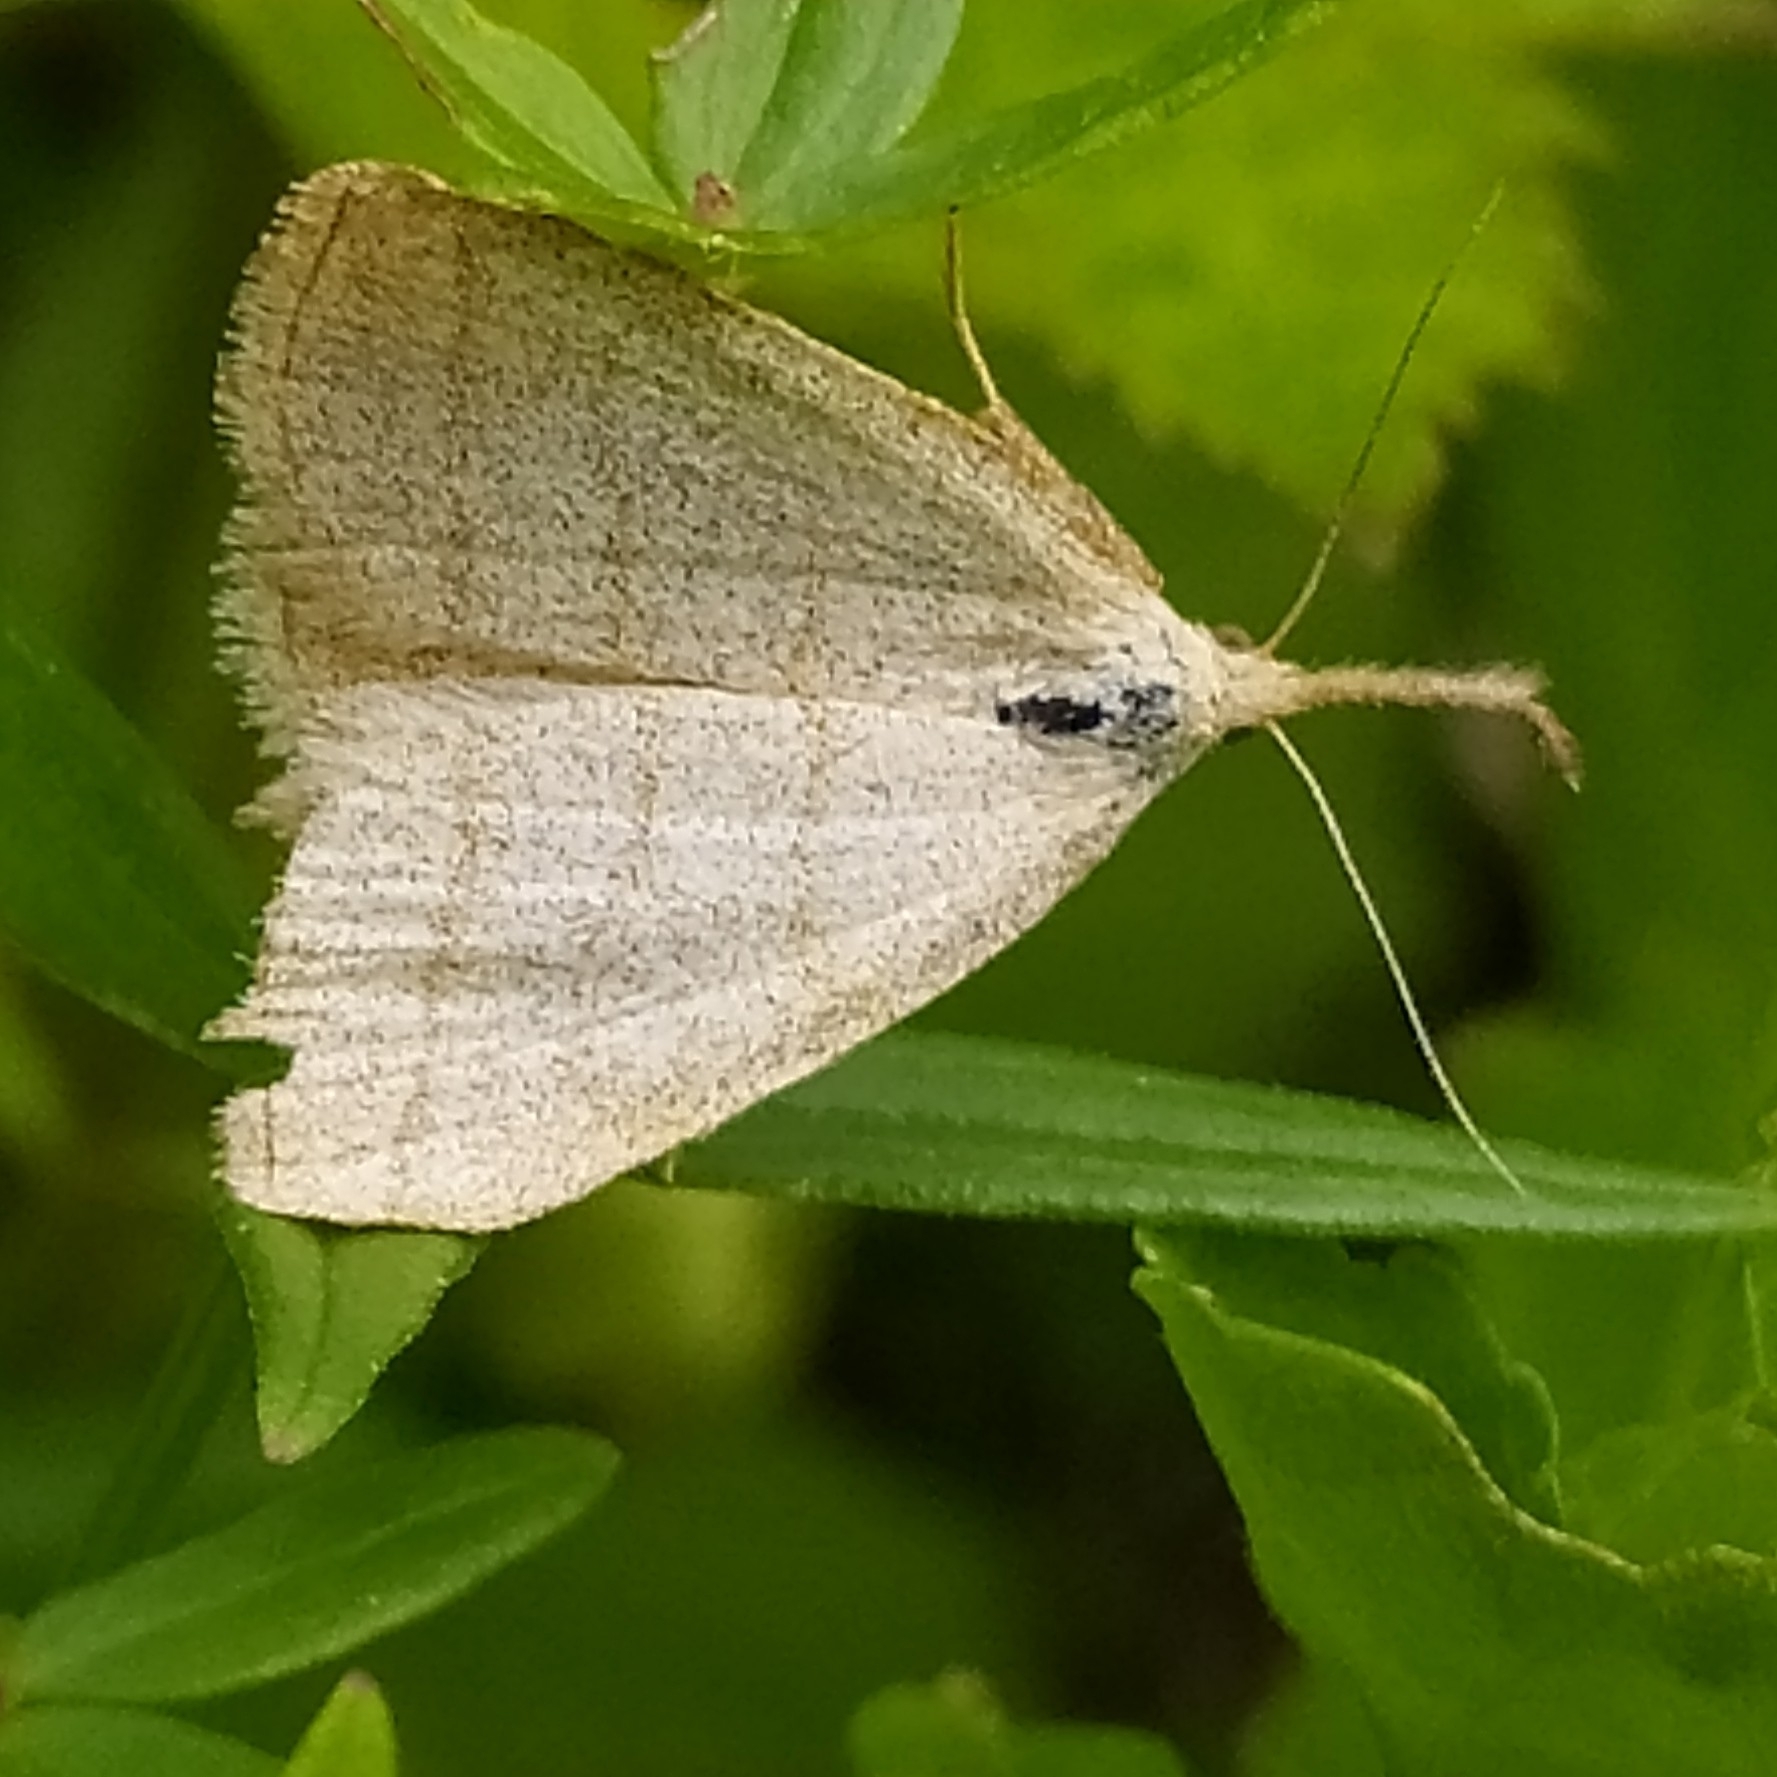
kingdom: Animalia
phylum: Arthropoda
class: Insecta
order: Lepidoptera
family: Erebidae
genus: Polypogon
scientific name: Polypogon tentacularia
